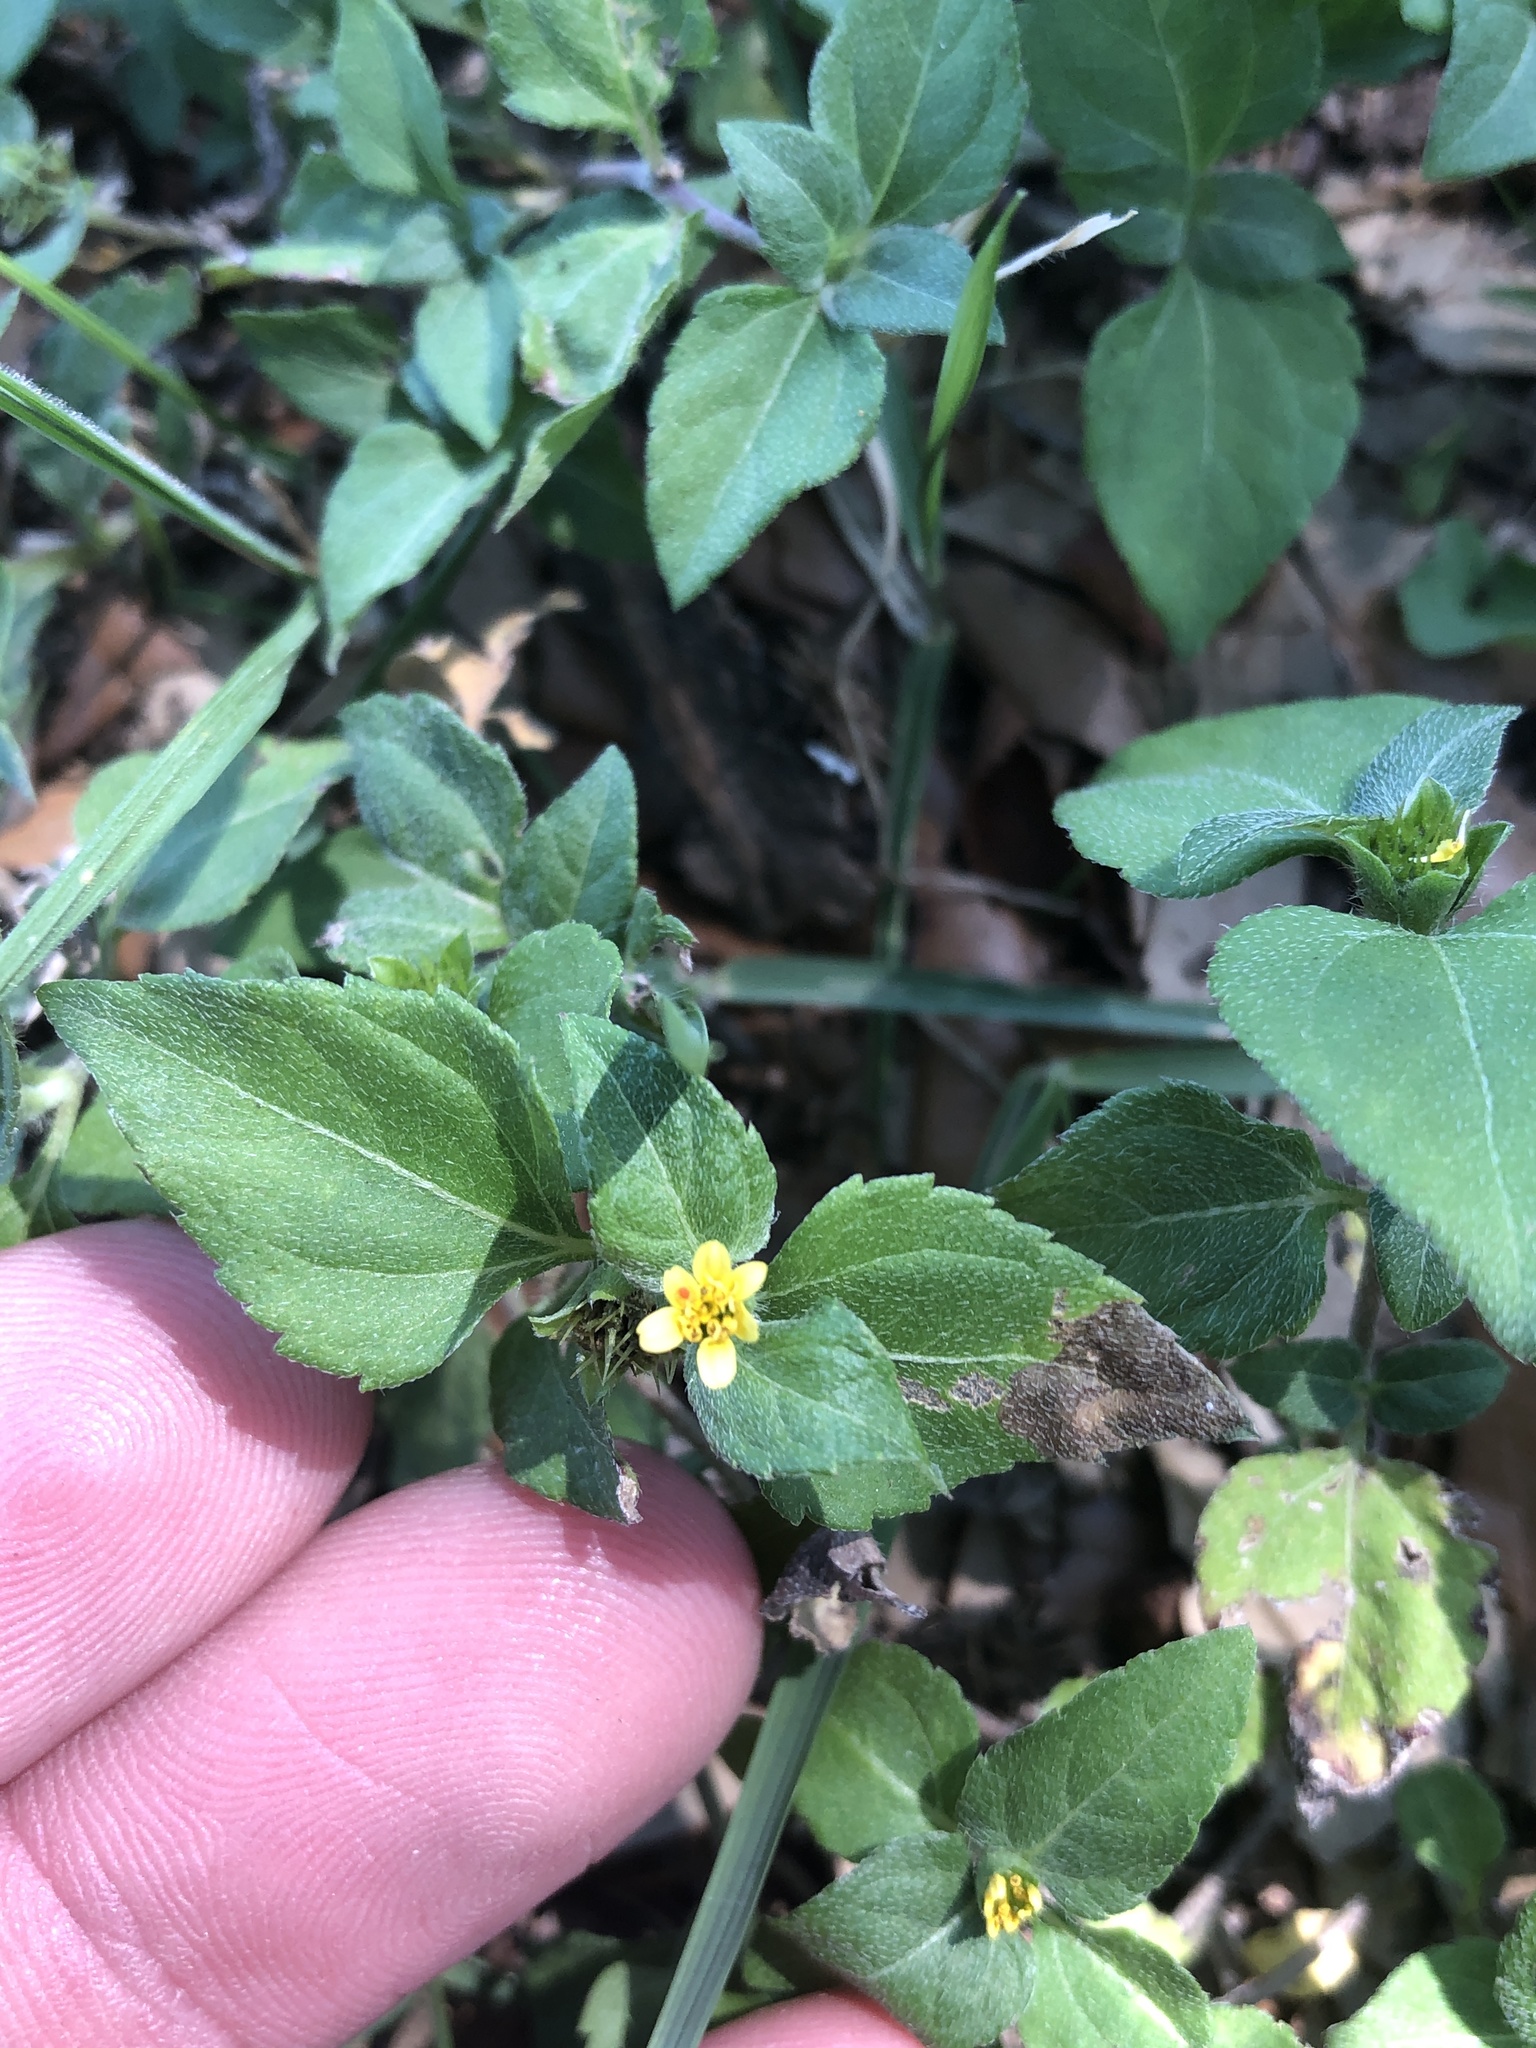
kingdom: Plantae
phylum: Tracheophyta
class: Magnoliopsida
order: Asterales
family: Asteraceae
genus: Calyptocarpus
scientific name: Calyptocarpus vialis
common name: Straggler daisy
